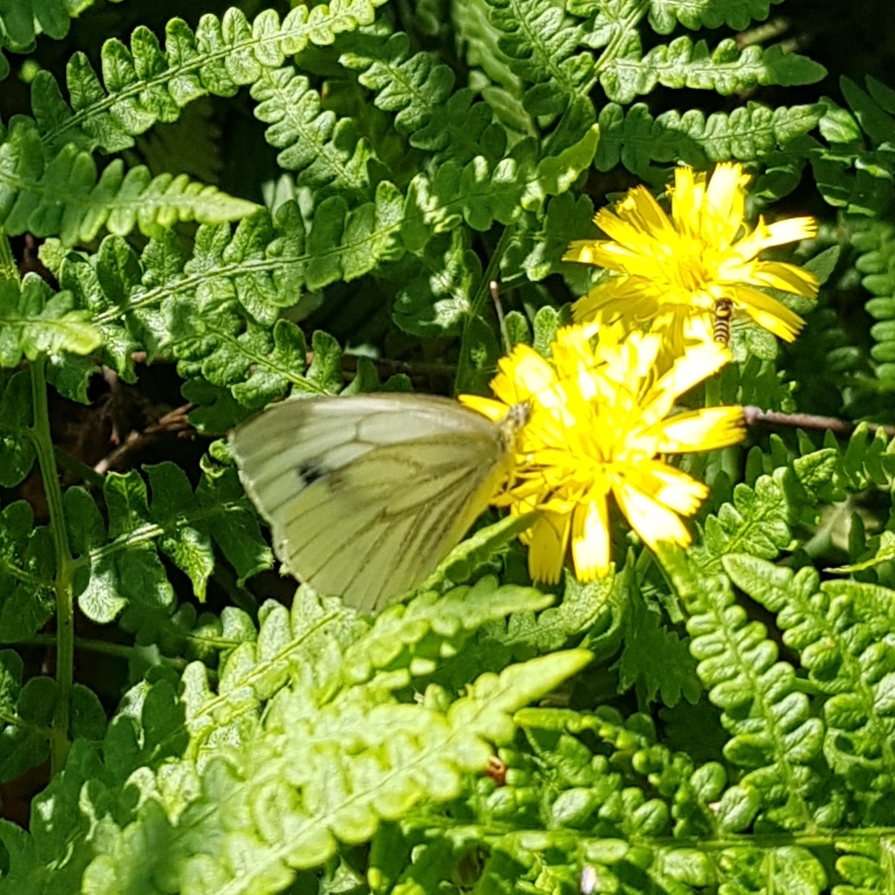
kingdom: Animalia
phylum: Arthropoda
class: Insecta
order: Lepidoptera
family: Pieridae
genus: Pieris
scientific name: Pieris napi
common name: Green-veined white
